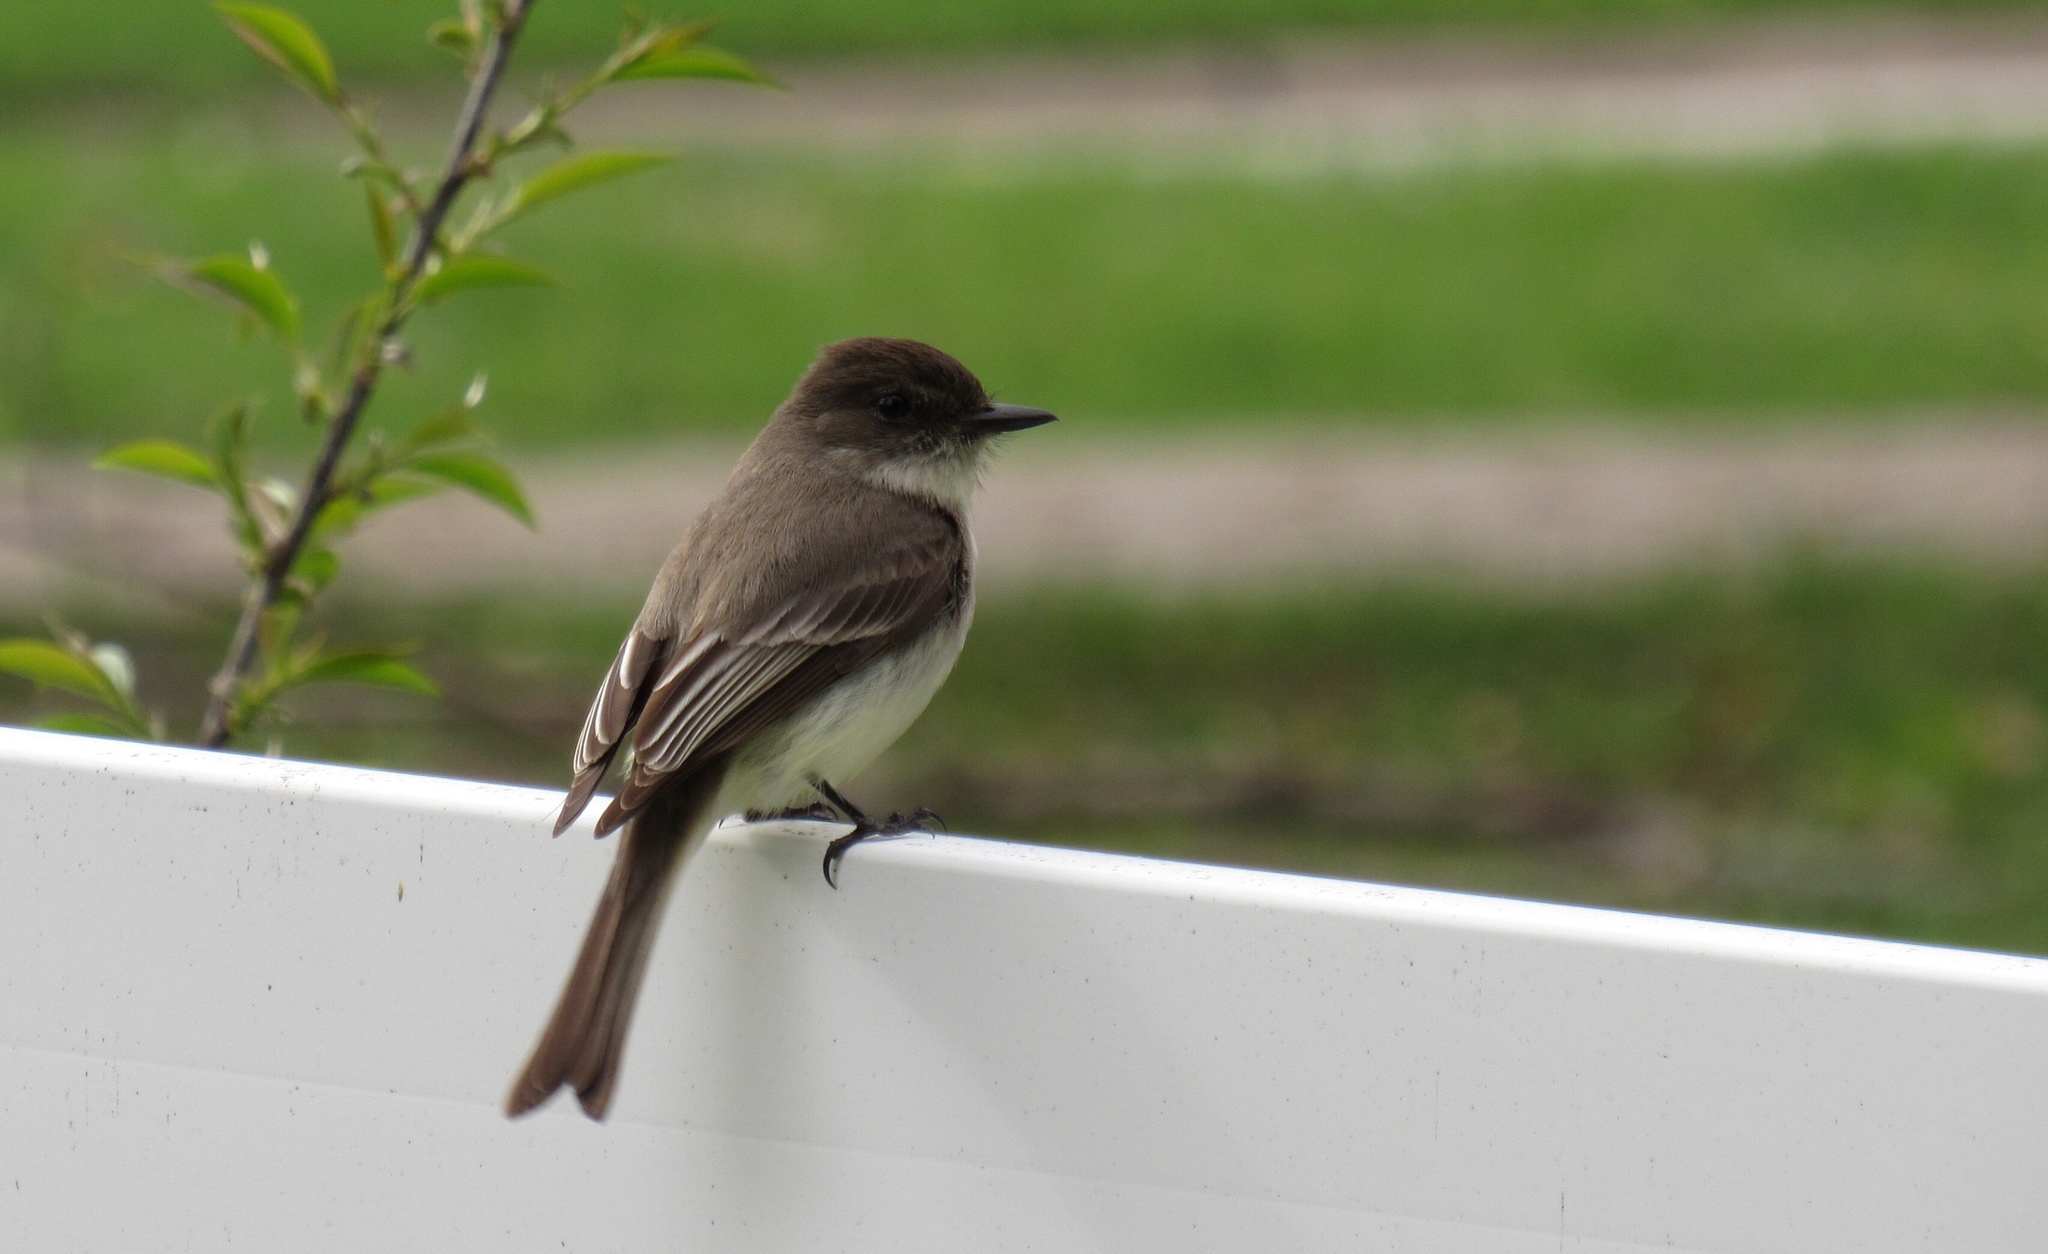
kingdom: Animalia
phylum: Chordata
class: Aves
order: Passeriformes
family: Tyrannidae
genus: Sayornis
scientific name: Sayornis phoebe
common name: Eastern phoebe
